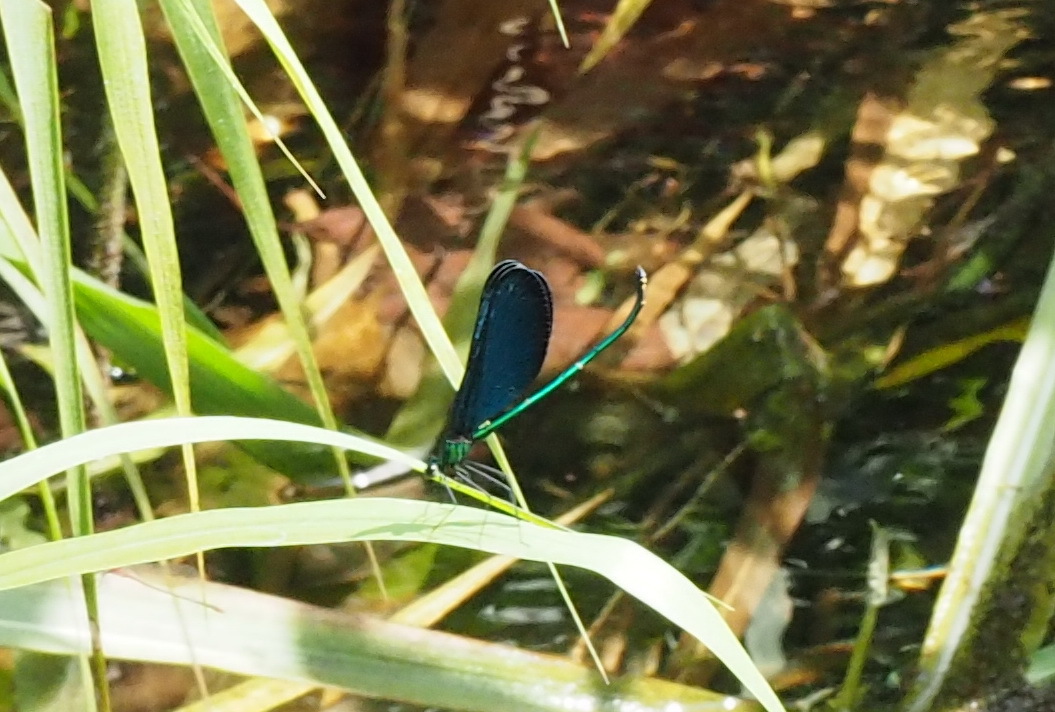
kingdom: Animalia
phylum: Arthropoda
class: Insecta
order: Odonata
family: Calopterygidae
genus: Matrona
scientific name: Matrona cyanoptera
